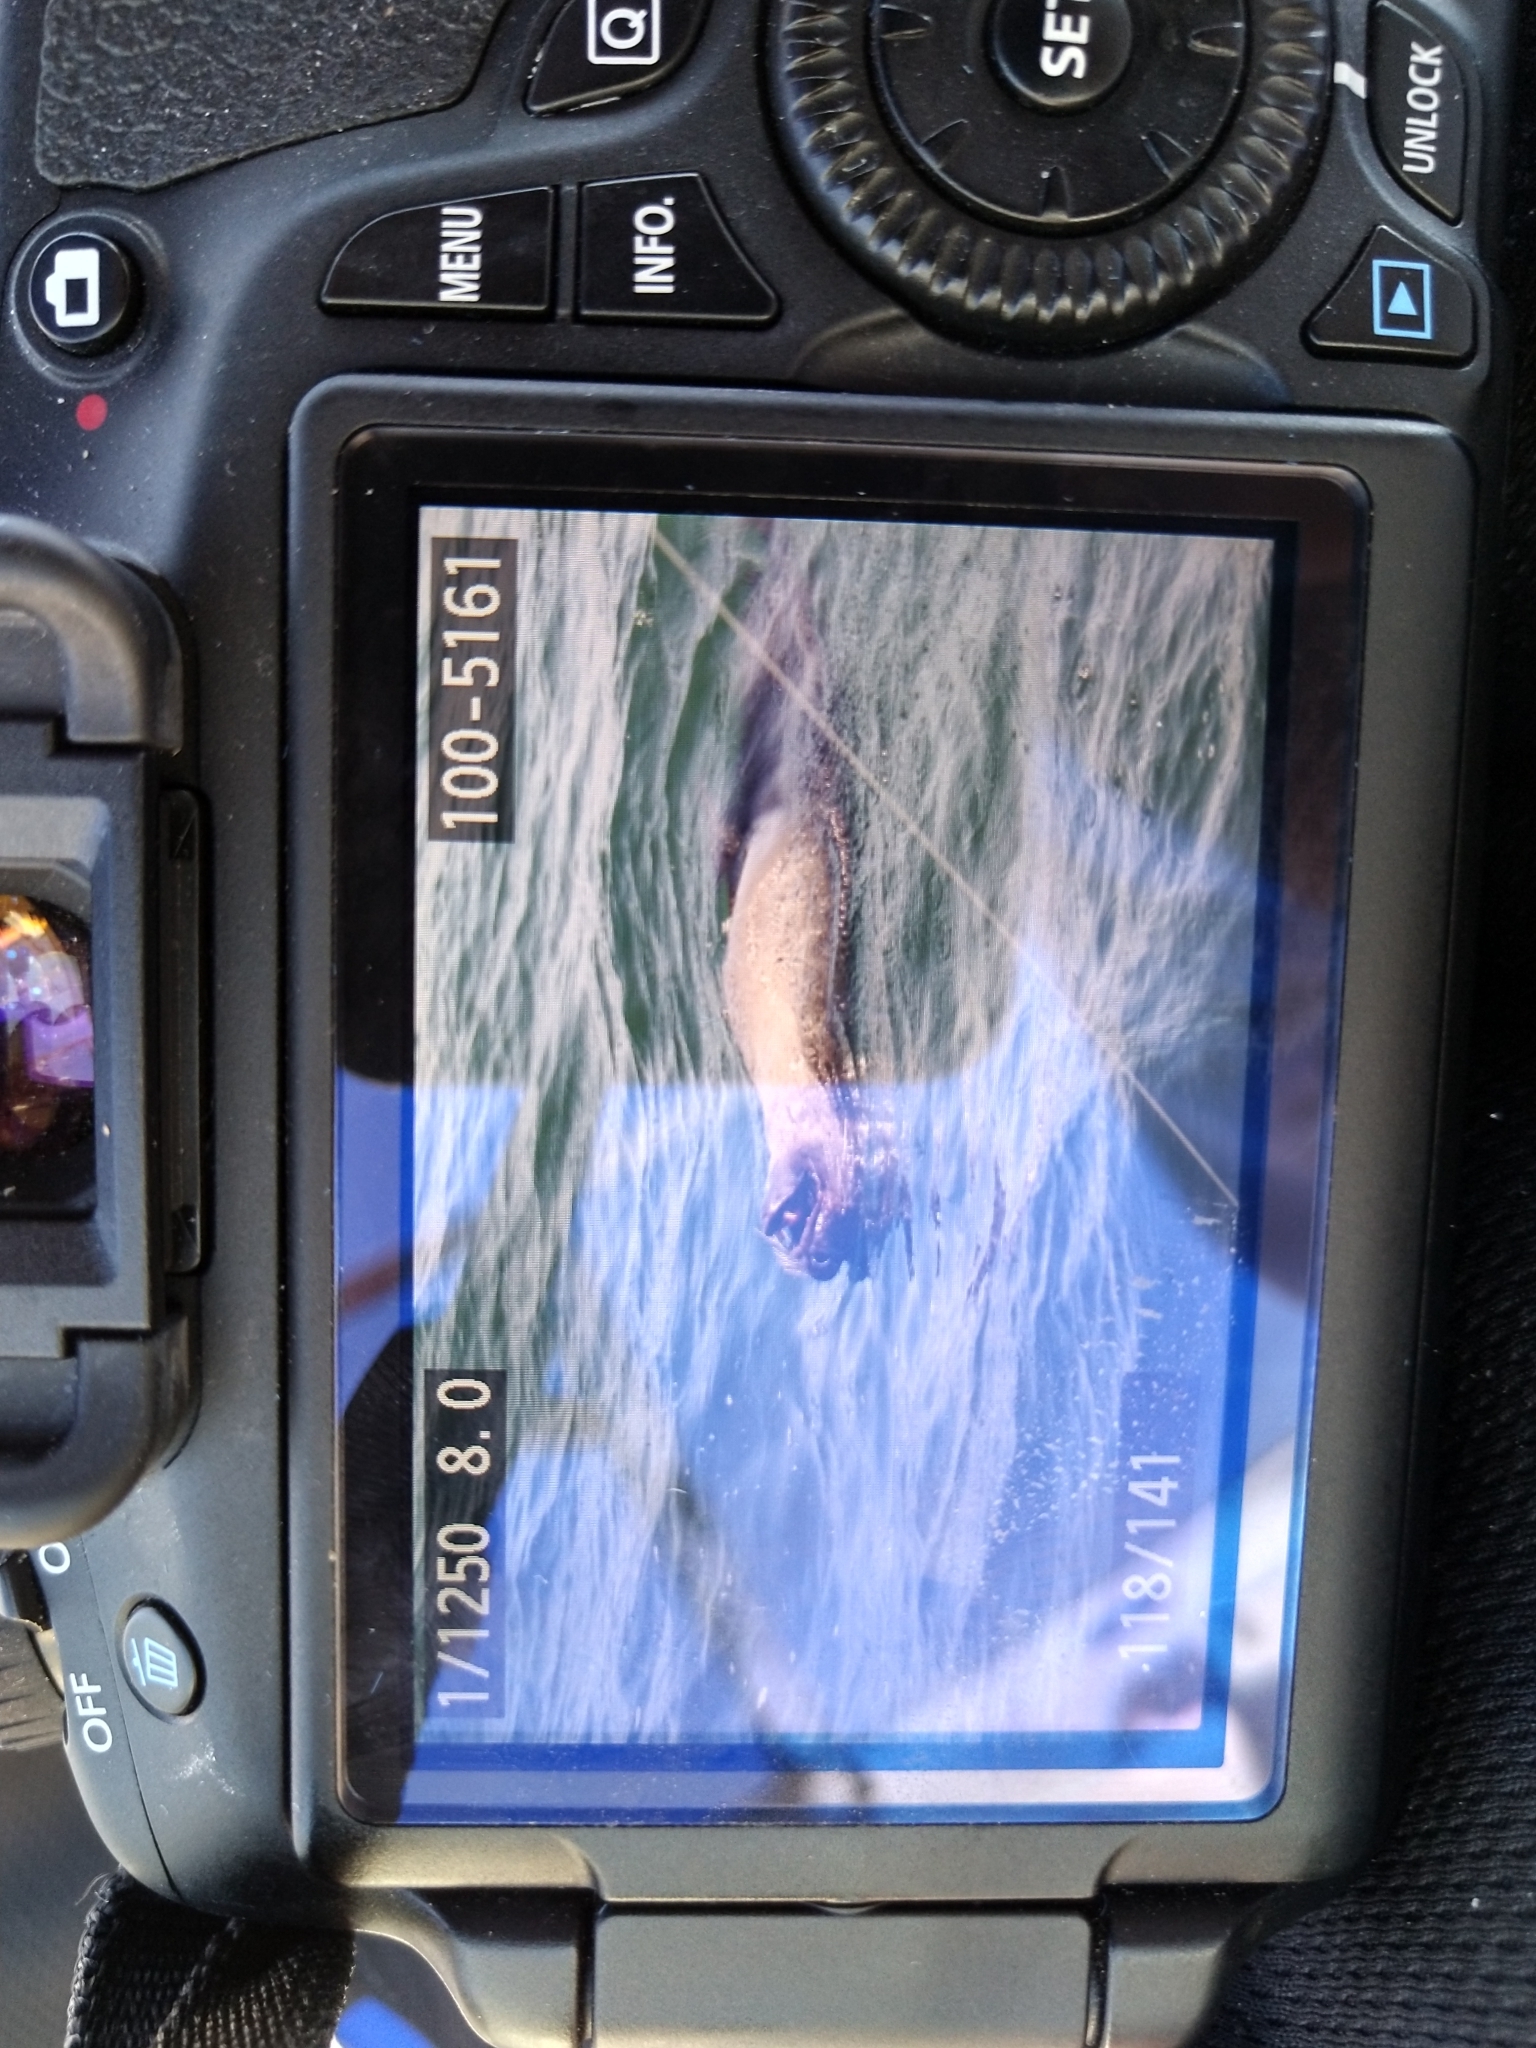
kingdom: Animalia
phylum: Chordata
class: Mammalia
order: Carnivora
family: Otariidae
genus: Arctocephalus
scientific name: Arctocephalus pusillus
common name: Brown fur seal
